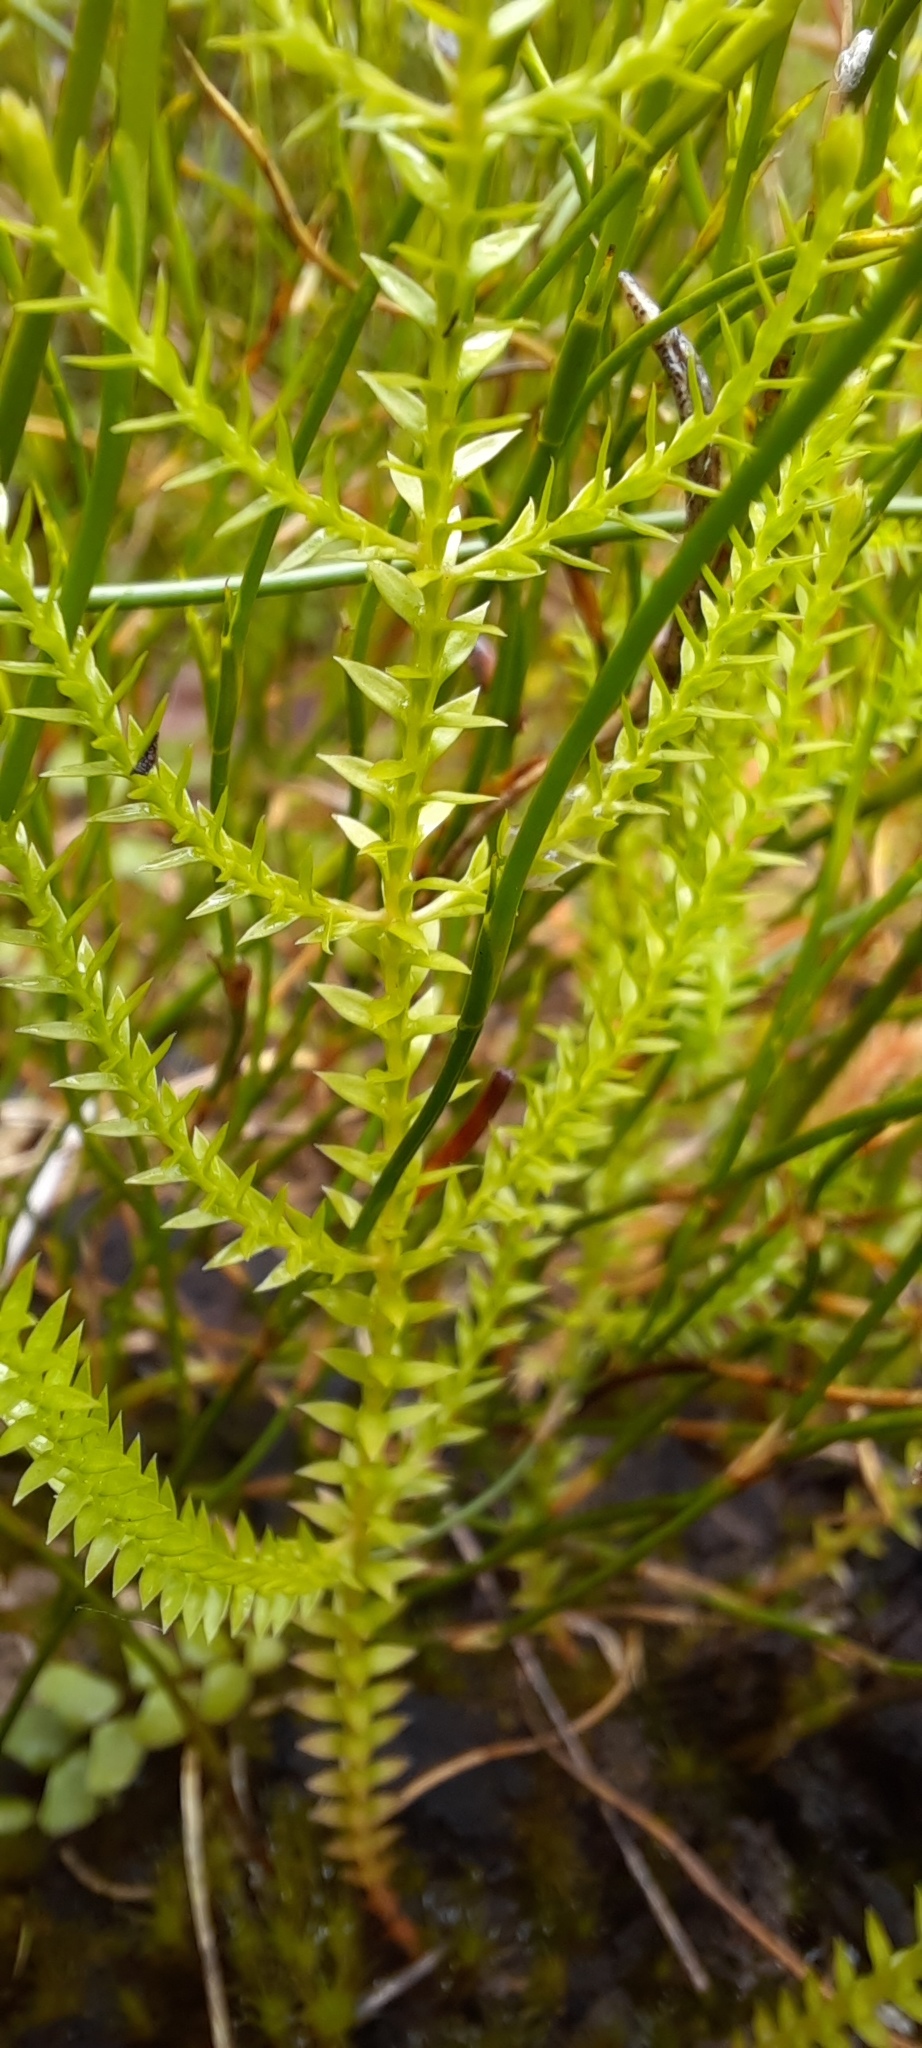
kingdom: Plantae
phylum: Tracheophyta
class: Lycopodiopsida
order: Selaginellales
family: Selaginellaceae
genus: Selaginella
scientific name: Selaginella uliginosa
